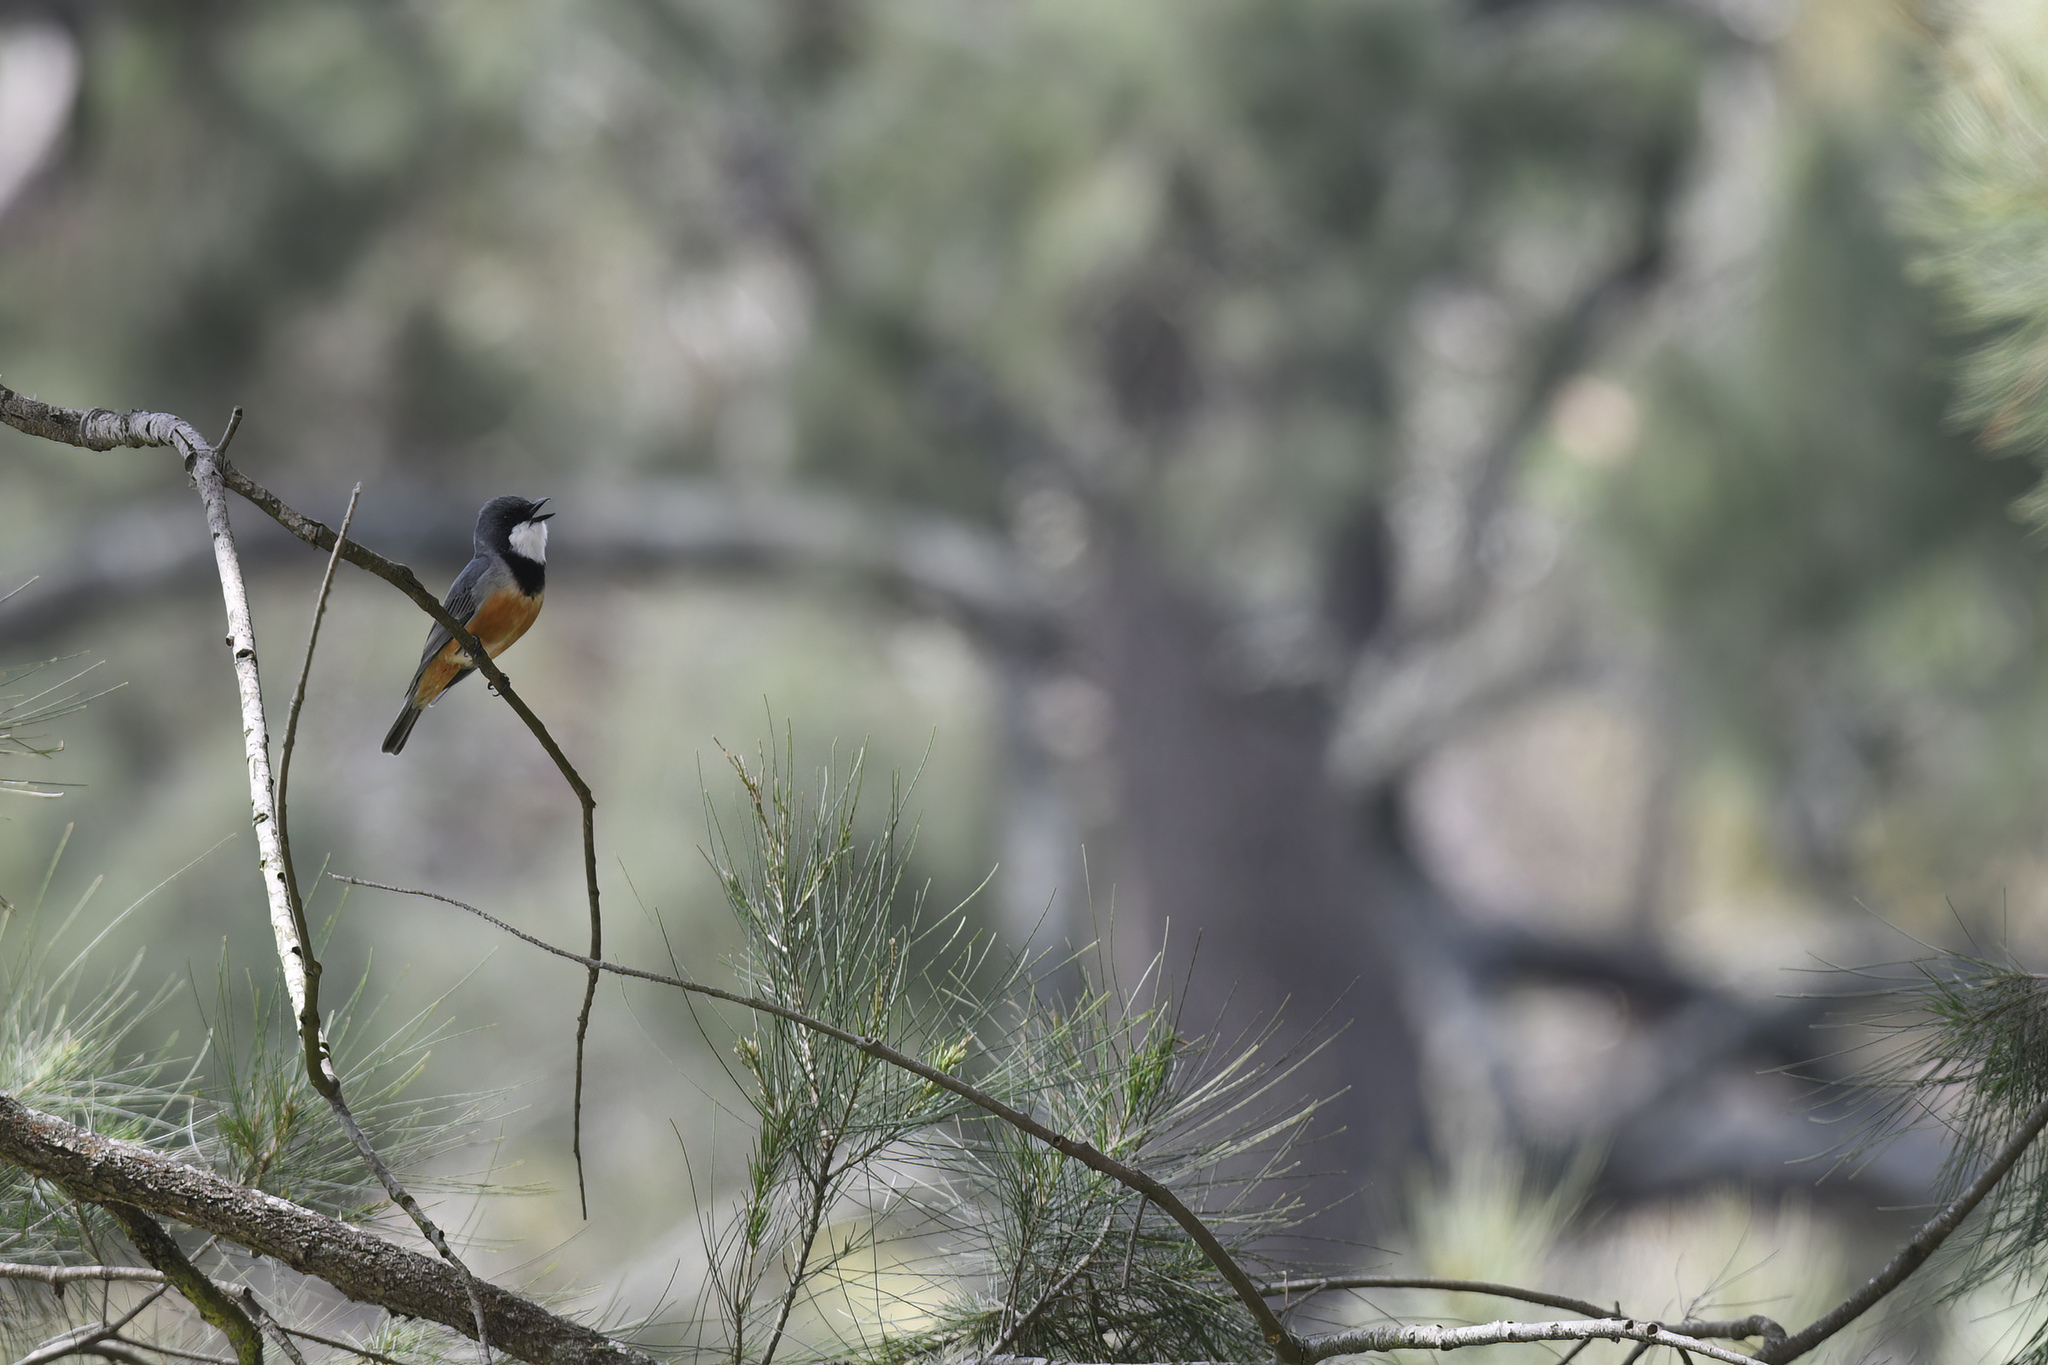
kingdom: Animalia
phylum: Chordata
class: Aves
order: Passeriformes
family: Pachycephalidae
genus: Pachycephala
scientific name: Pachycephala rufiventris
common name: Rufous whistler
